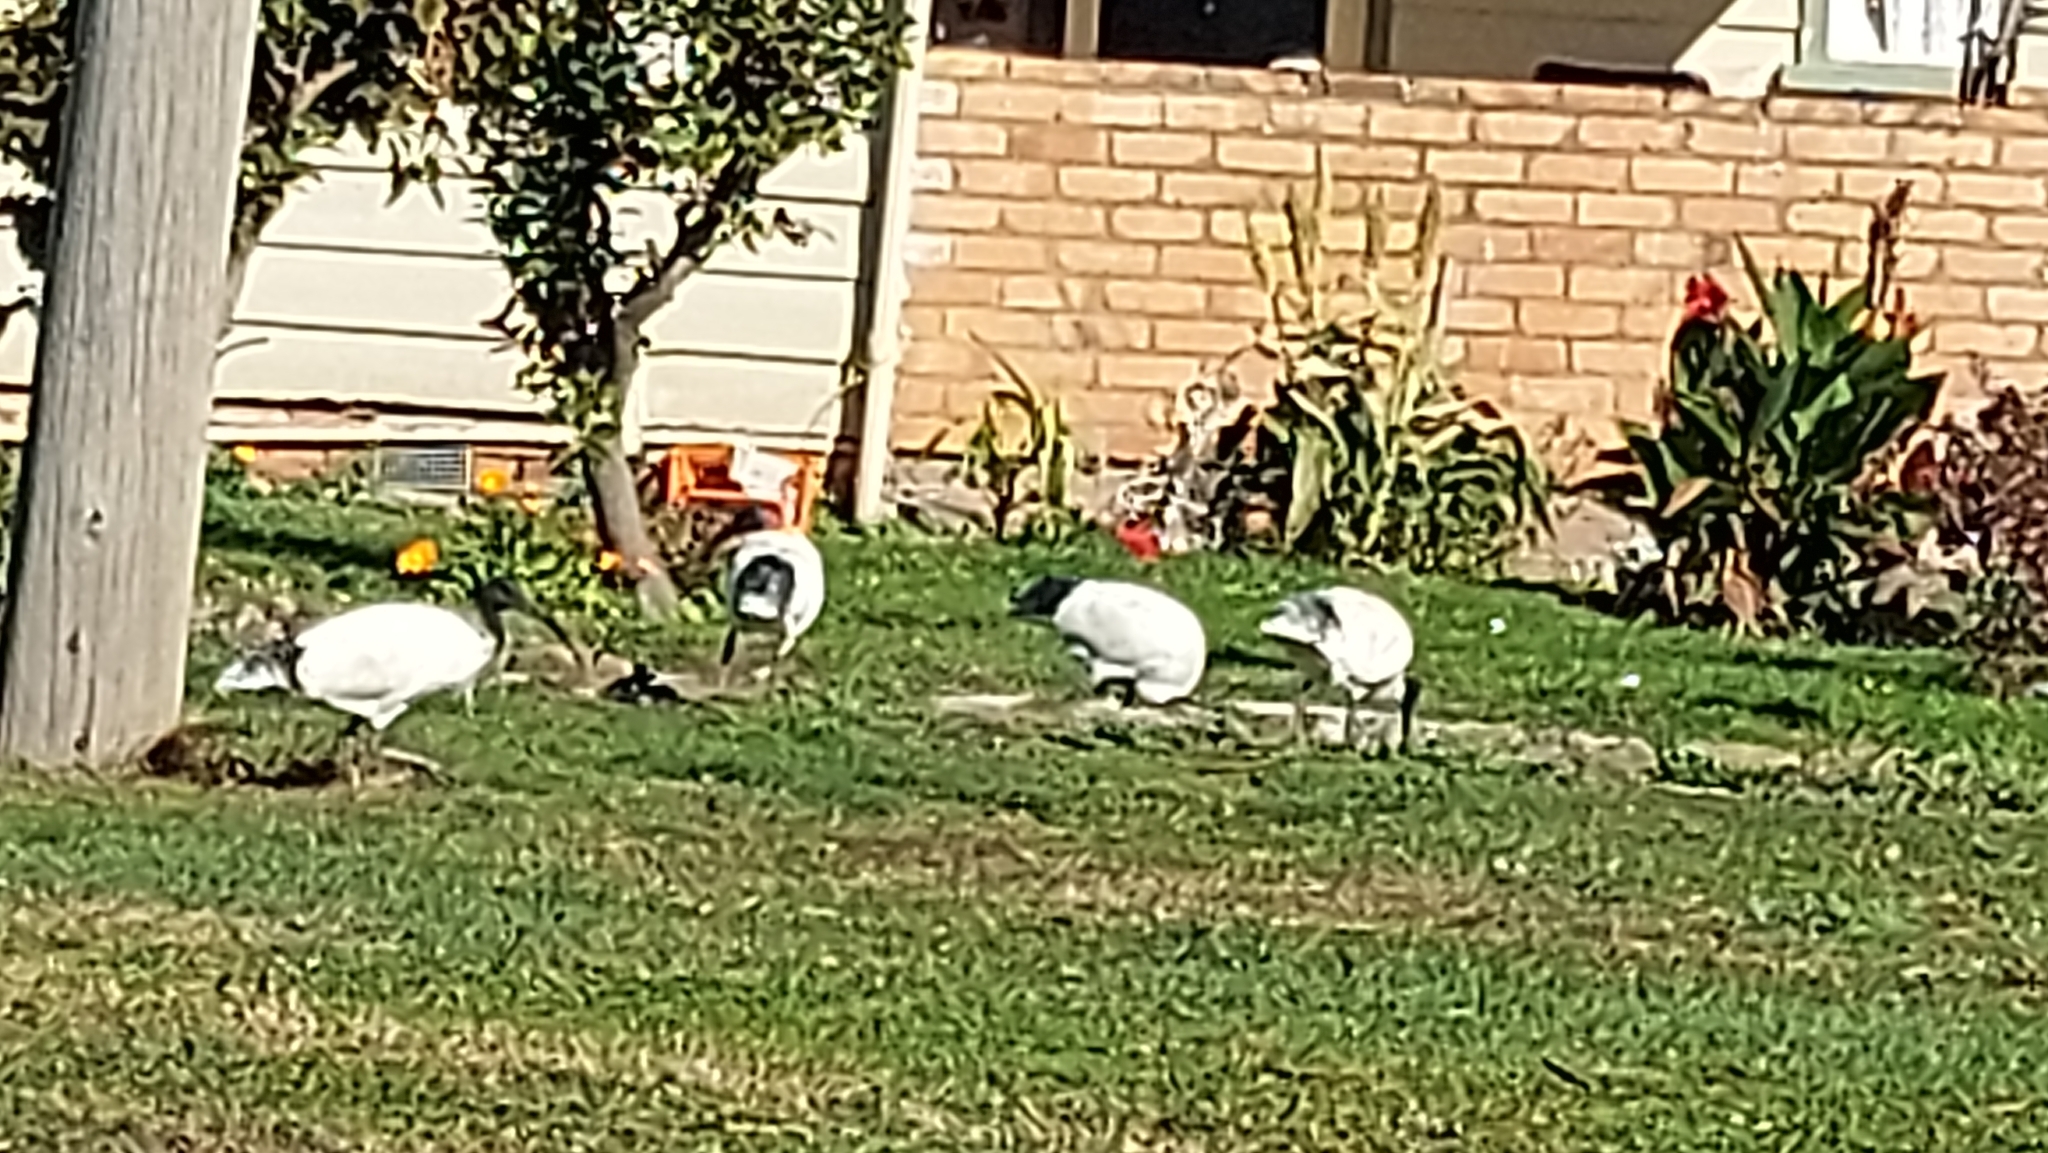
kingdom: Animalia
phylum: Chordata
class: Aves
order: Pelecaniformes
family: Threskiornithidae
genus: Threskiornis
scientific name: Threskiornis molucca
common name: Australian white ibis
